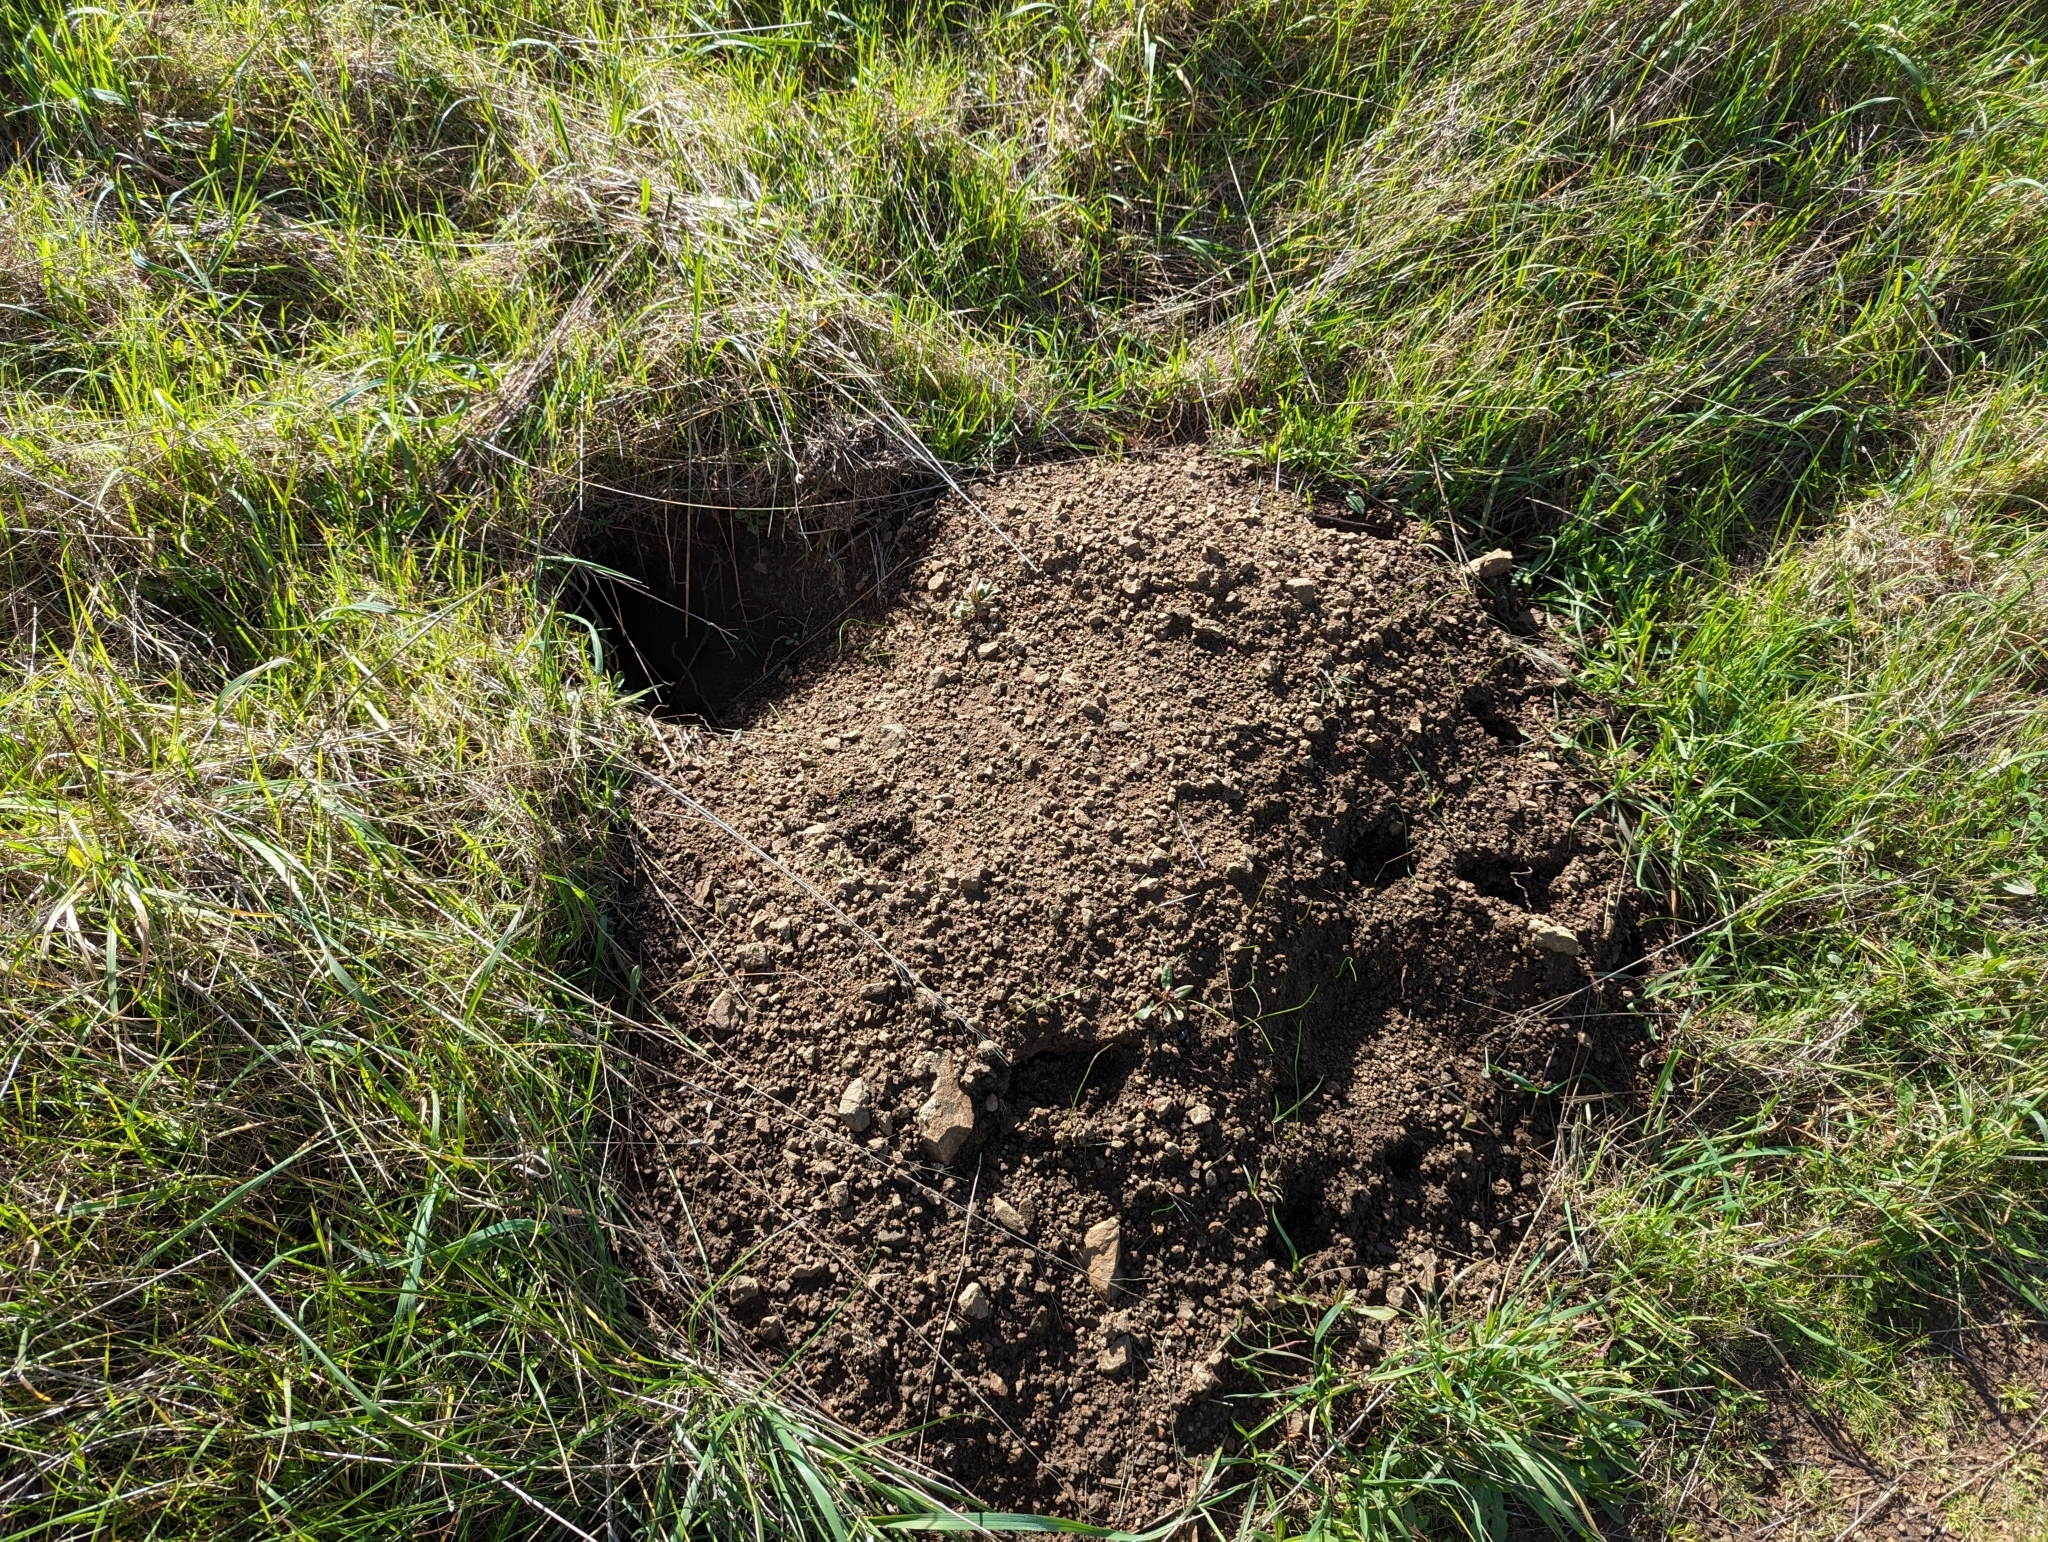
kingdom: Animalia
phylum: Chordata
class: Mammalia
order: Carnivora
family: Mustelidae
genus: Taxidea
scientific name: Taxidea taxus
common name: American badger
